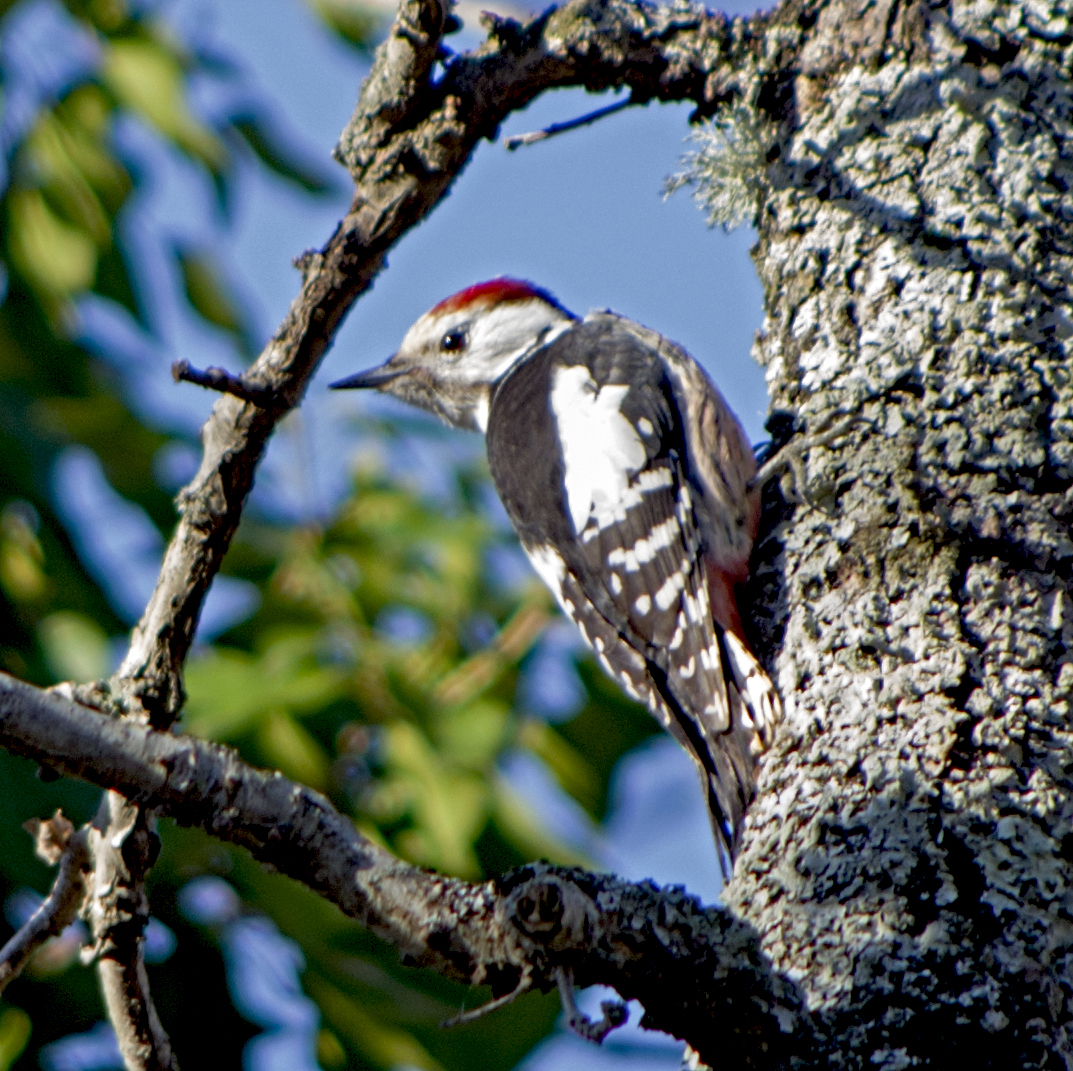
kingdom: Animalia
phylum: Chordata
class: Aves
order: Piciformes
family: Picidae
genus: Dendrocoptes
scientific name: Dendrocoptes medius
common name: Middle spotted woodpecker
